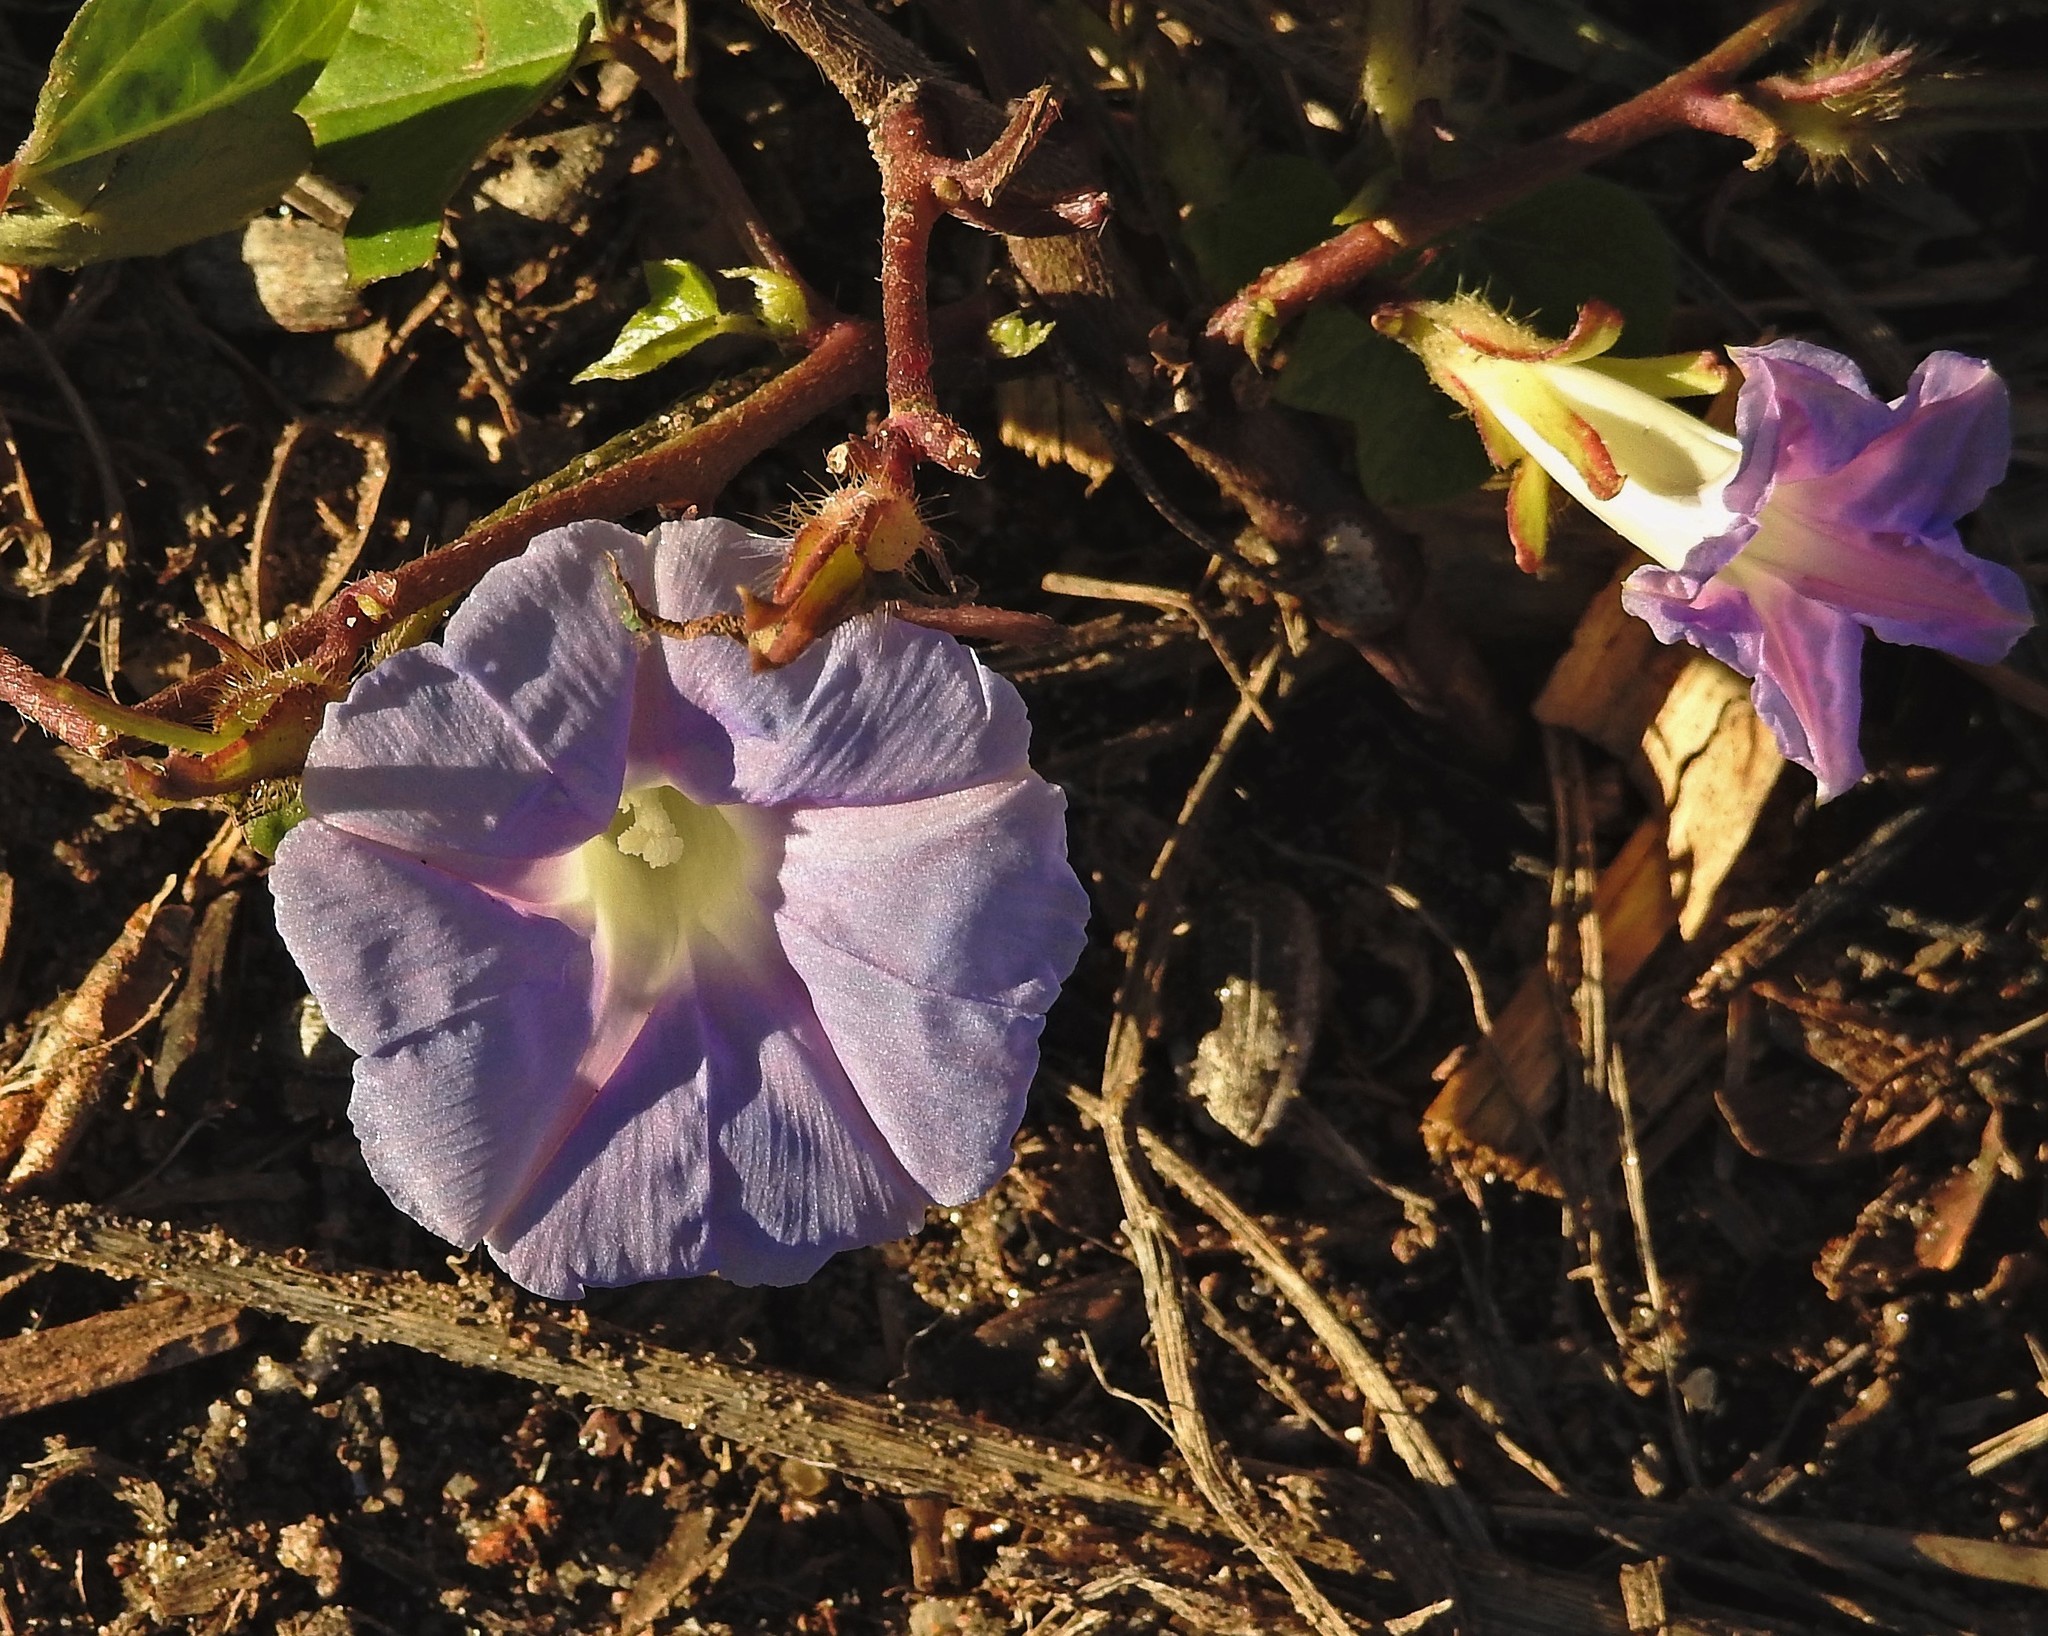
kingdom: Plantae
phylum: Tracheophyta
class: Magnoliopsida
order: Solanales
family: Convolvulaceae
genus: Ipomoea
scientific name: Ipomoea nil
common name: Japanese morning-glory
